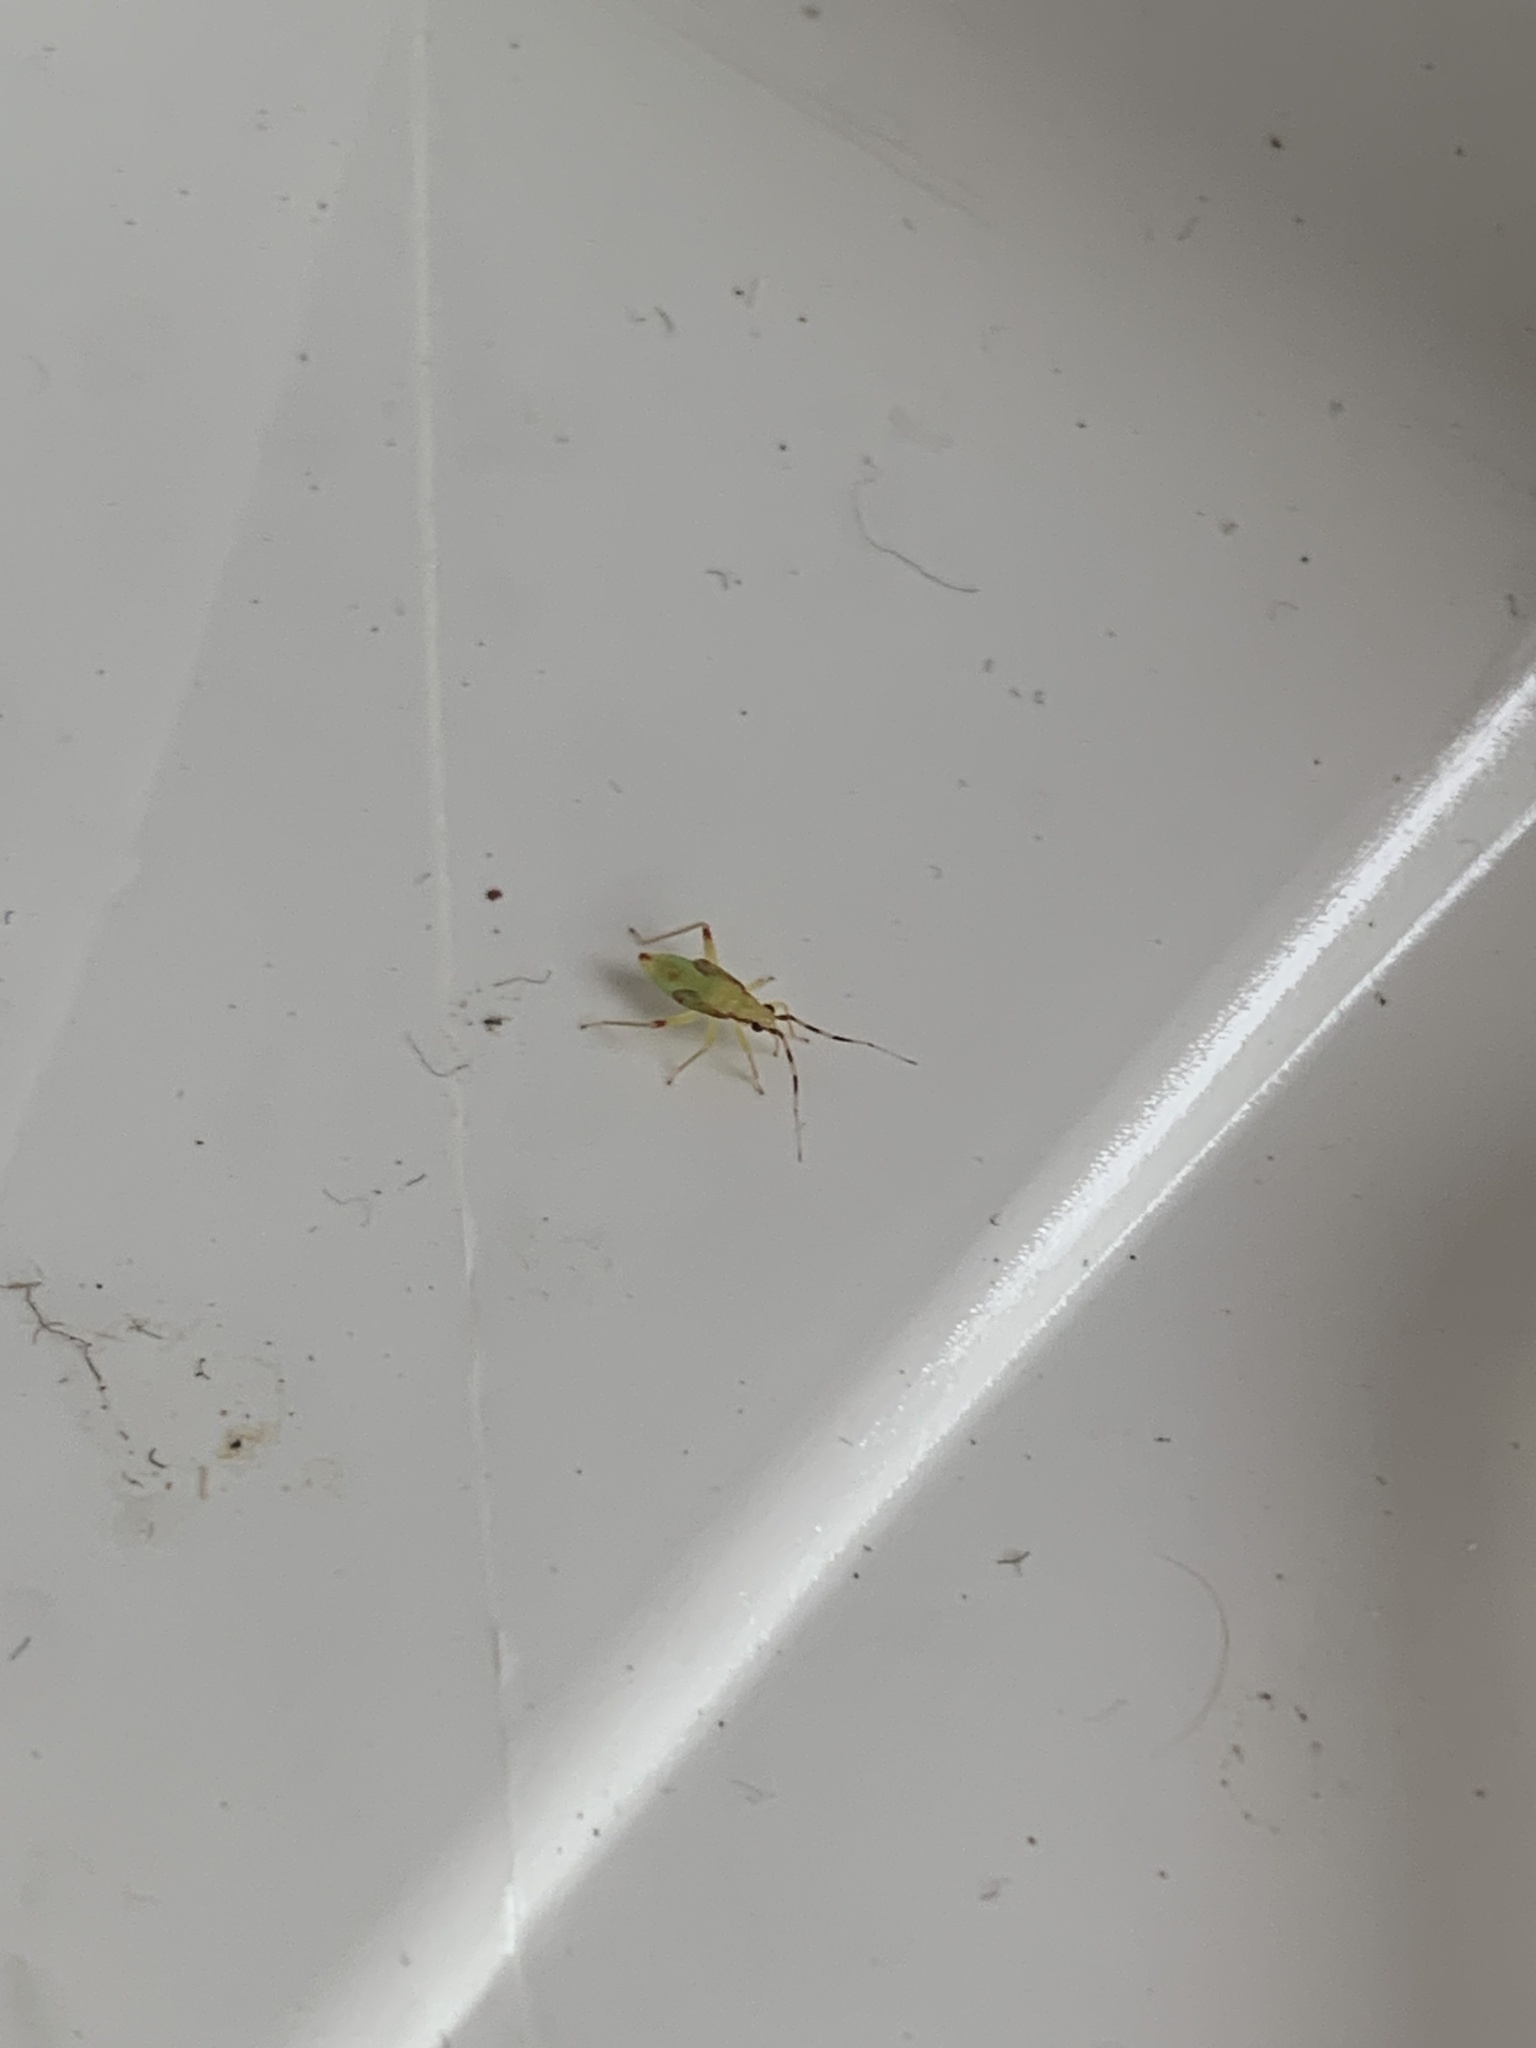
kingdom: Animalia
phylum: Arthropoda
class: Insecta
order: Hemiptera
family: Miridae
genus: Campyloneura
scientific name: Campyloneura virgula
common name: Predatory bug
